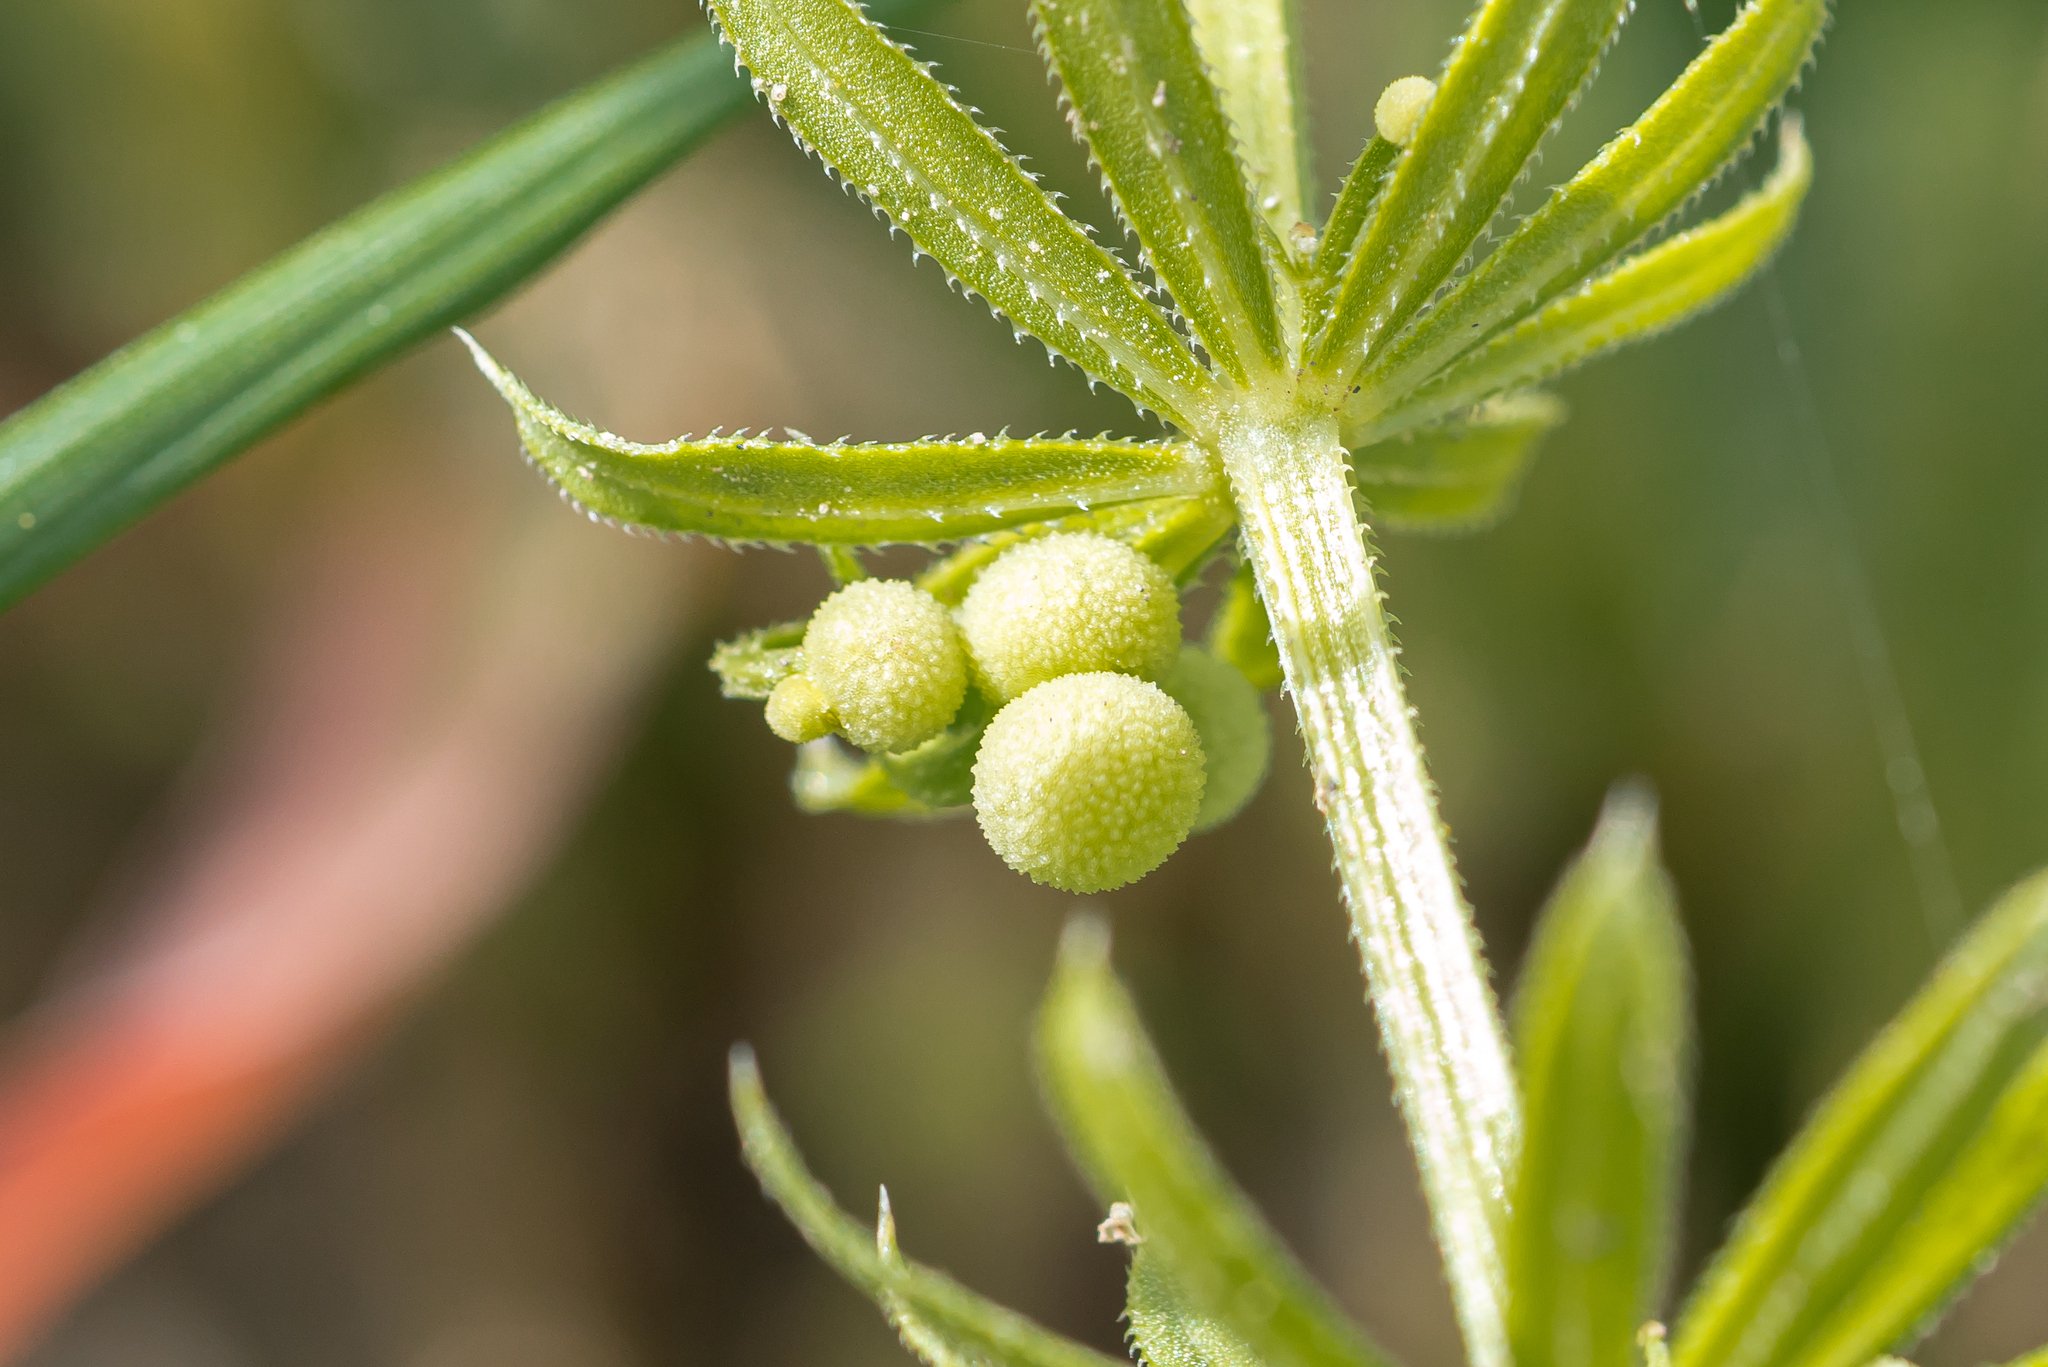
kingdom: Plantae
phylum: Tracheophyta
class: Magnoliopsida
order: Gentianales
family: Rubiaceae
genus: Galium
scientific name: Galium tricornutum
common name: Corn cleavers
